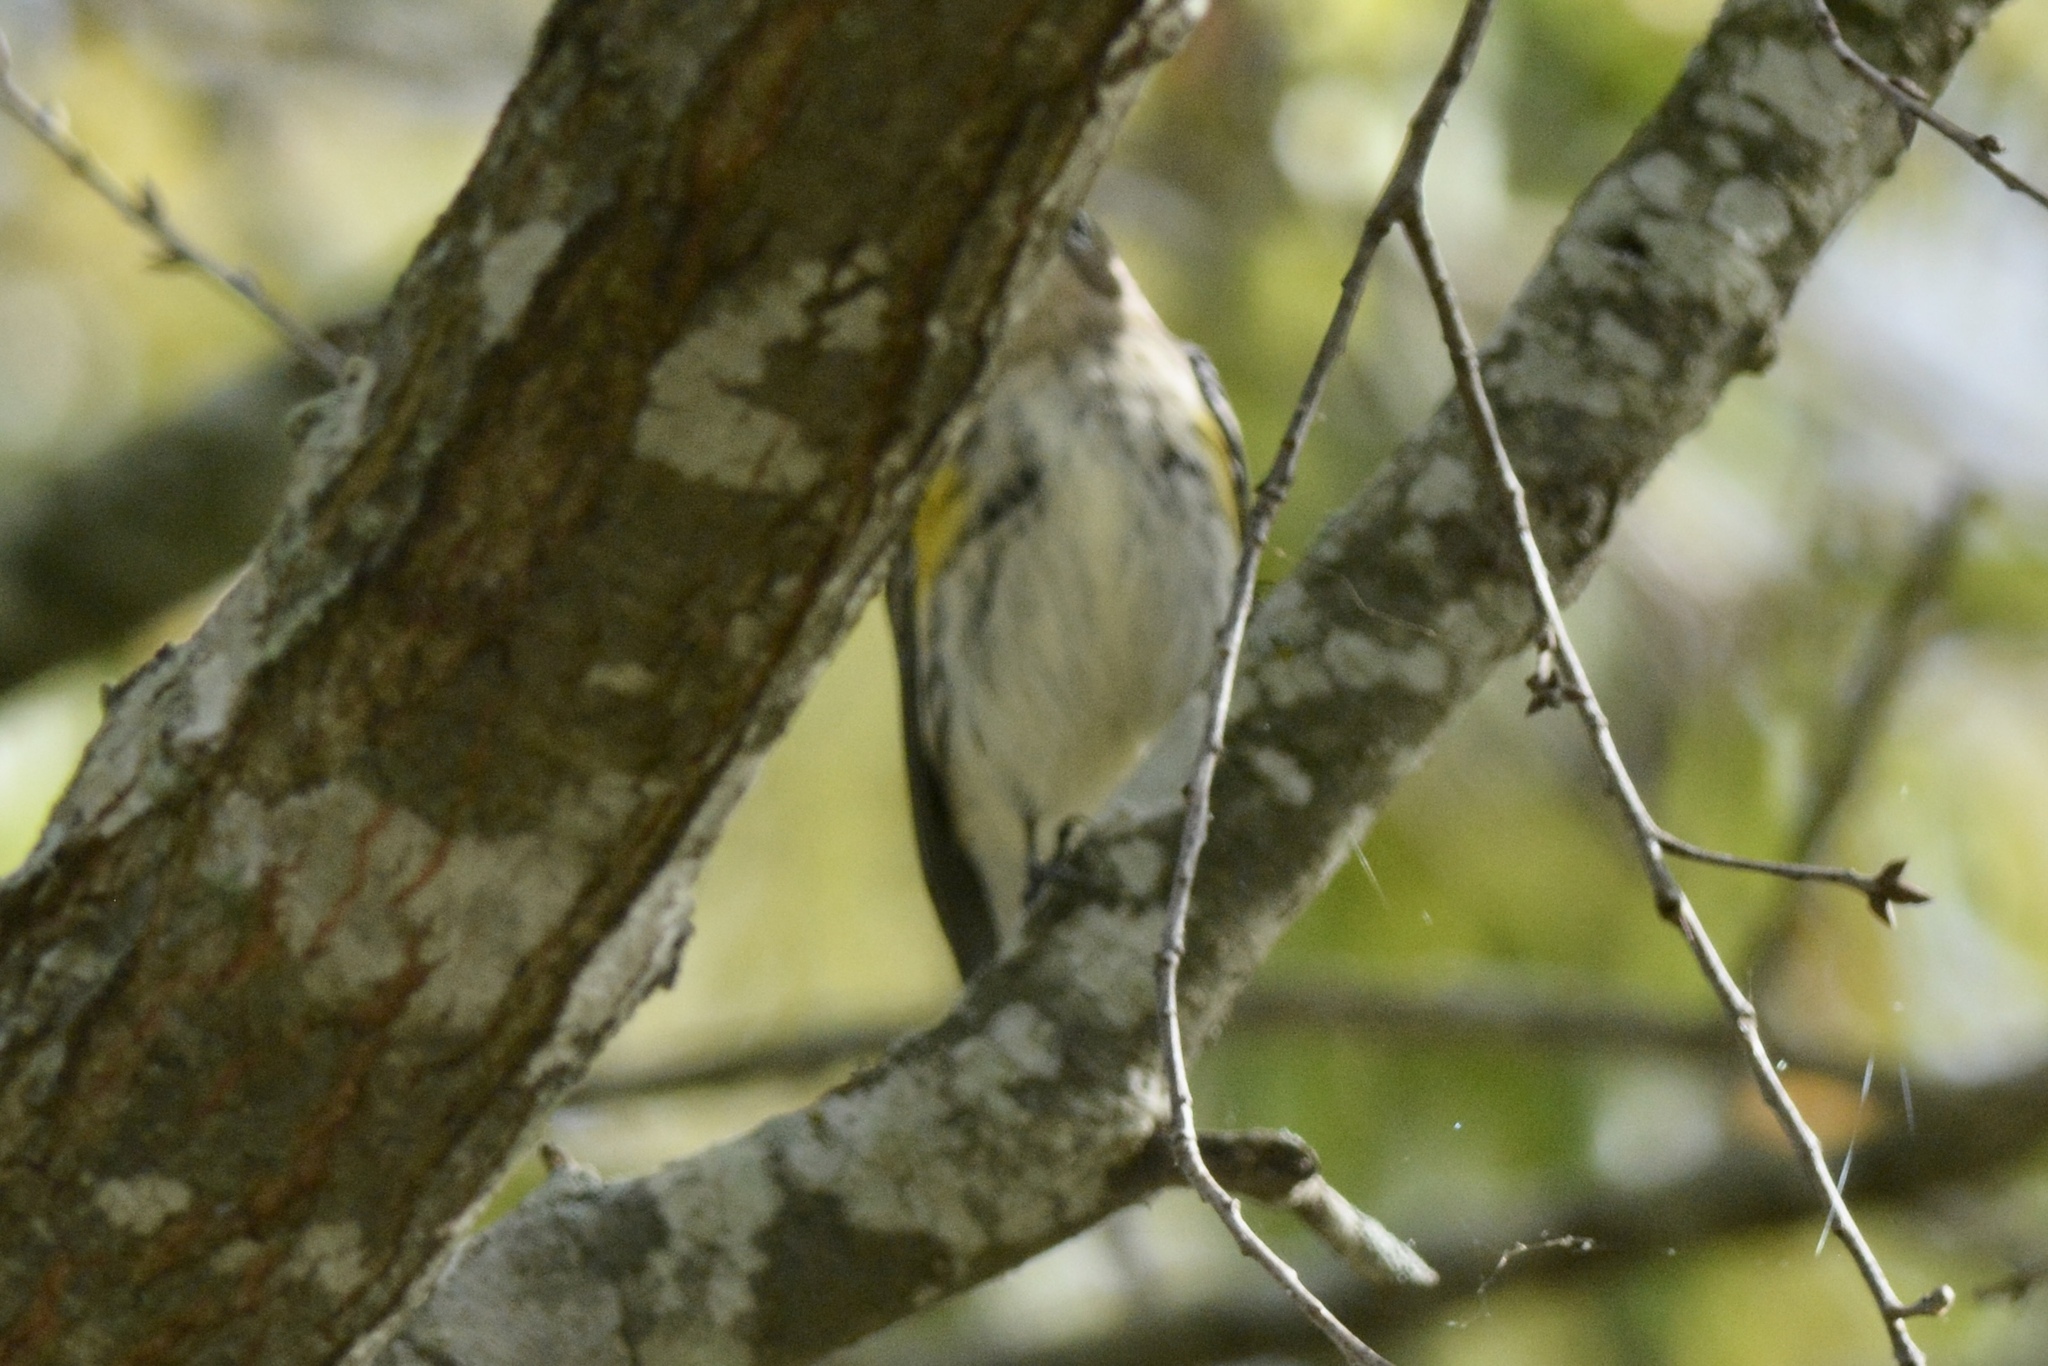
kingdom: Animalia
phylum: Chordata
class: Aves
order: Passeriformes
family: Parulidae
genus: Setophaga
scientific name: Setophaga coronata
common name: Myrtle warbler
